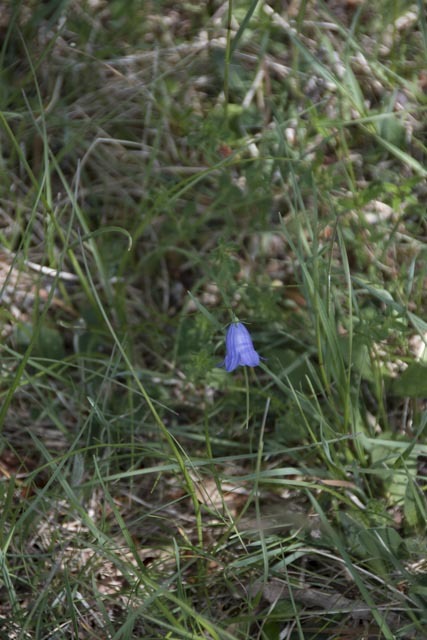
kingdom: Plantae
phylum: Tracheophyta
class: Magnoliopsida
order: Asterales
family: Campanulaceae
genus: Campanula
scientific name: Campanula rotundifolia
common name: Harebell
